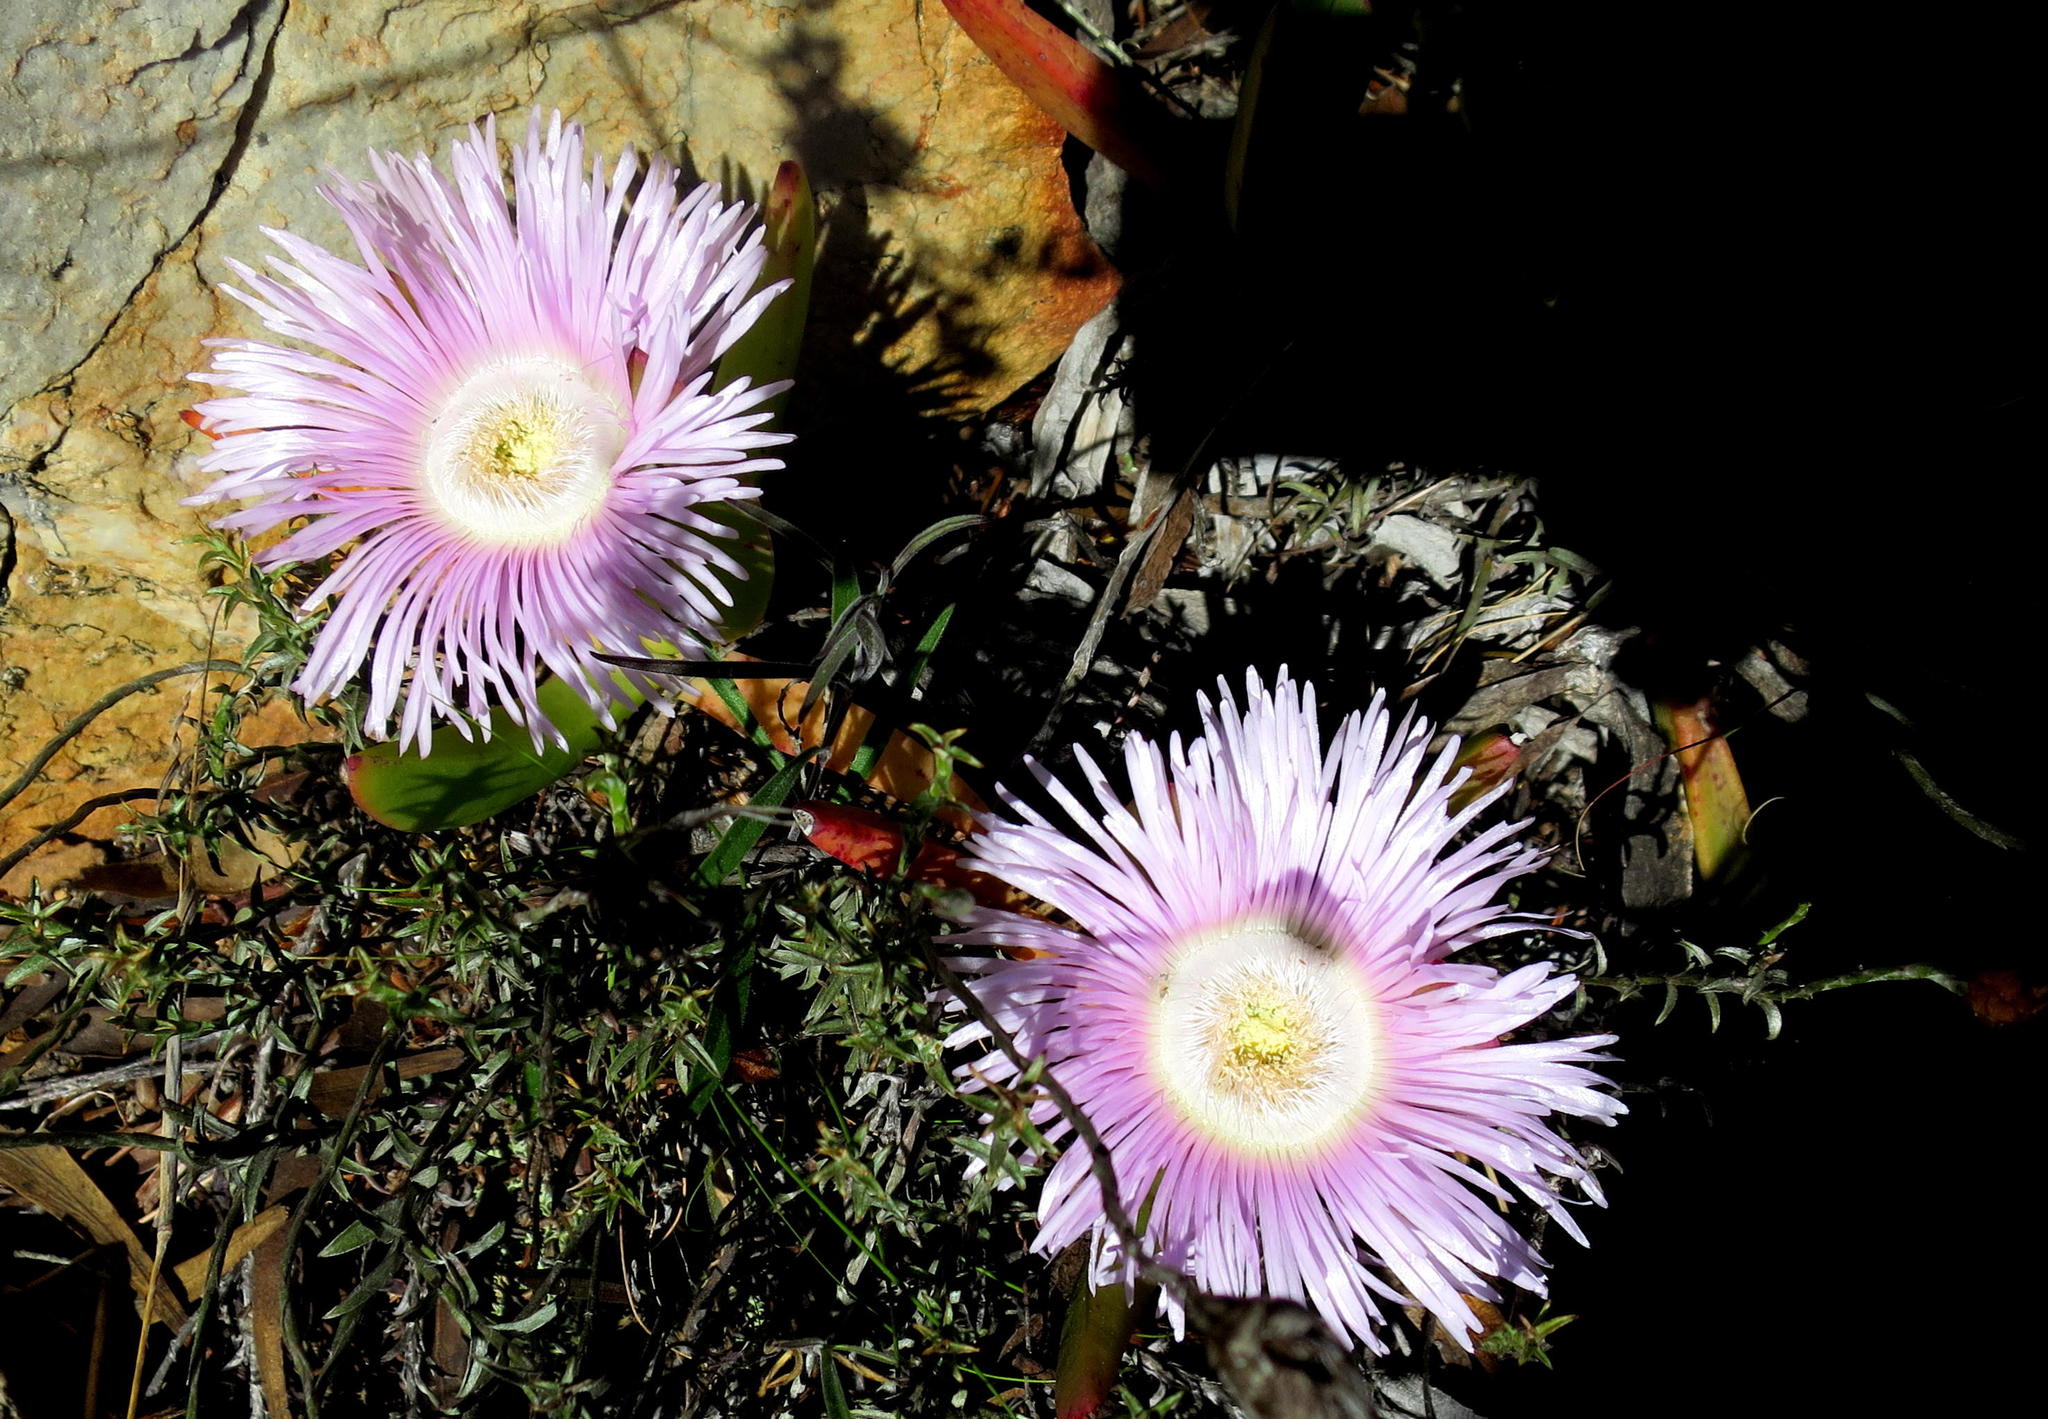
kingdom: Plantae
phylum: Tracheophyta
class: Magnoliopsida
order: Caryophyllales
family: Aizoaceae
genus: Carpobrotus
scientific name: Carpobrotus mellei
